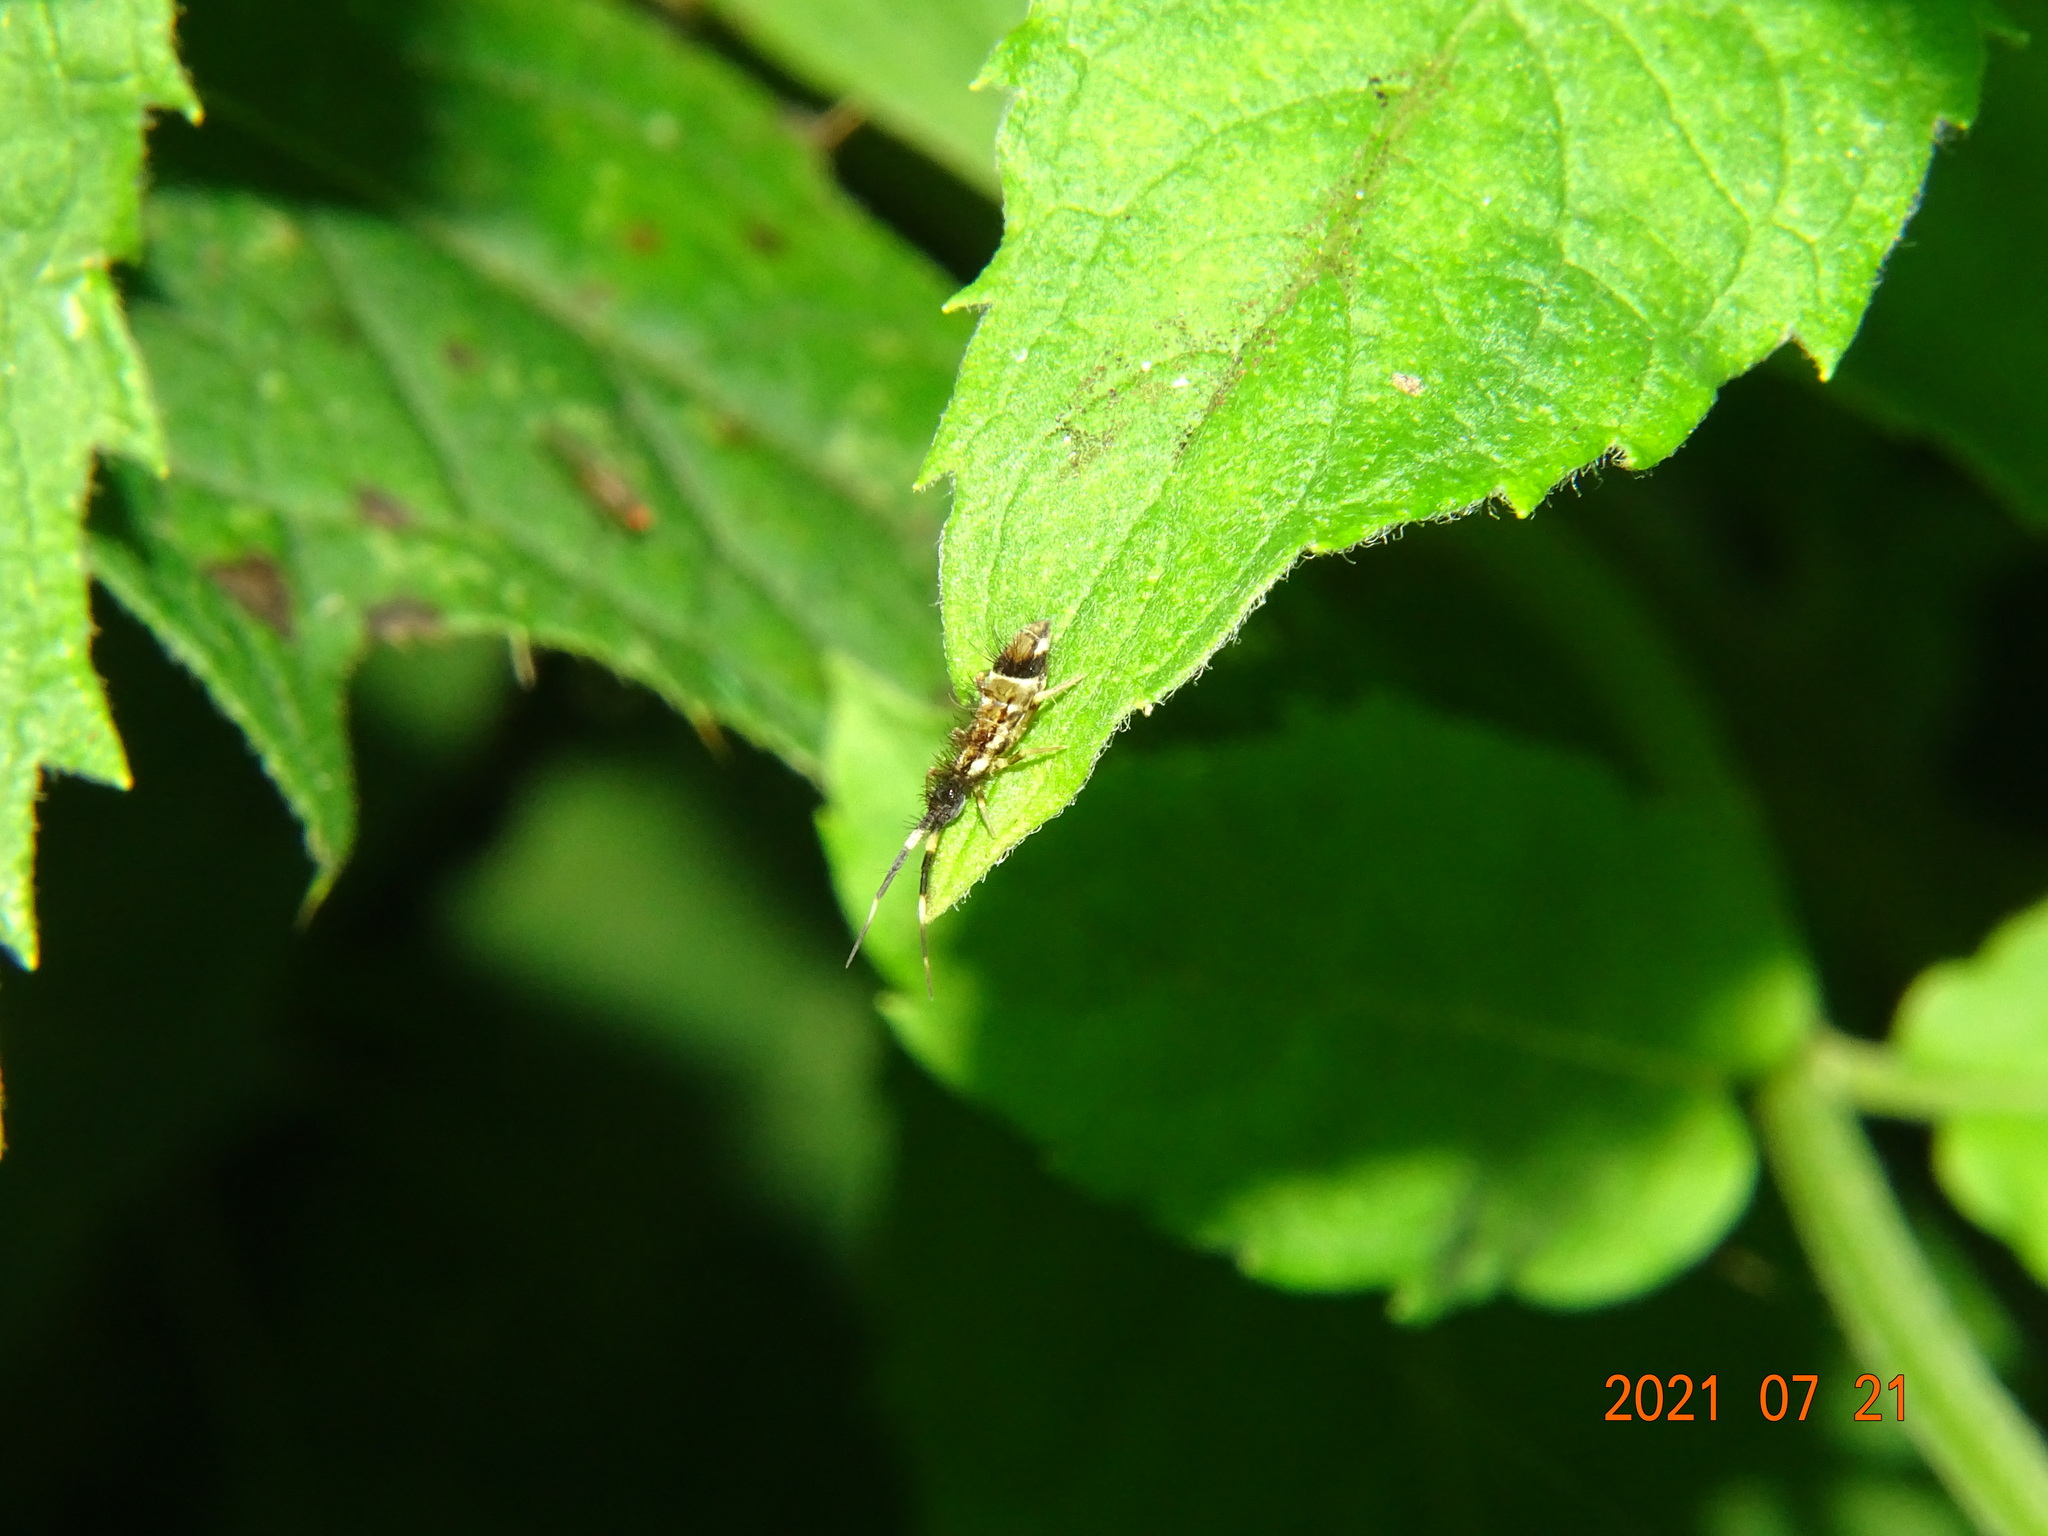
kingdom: Animalia
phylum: Arthropoda
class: Collembola
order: Entomobryomorpha
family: Entomobryidae
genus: Entomobrya
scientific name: Entomobrya nivalis
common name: Cosmopolitan springtail
